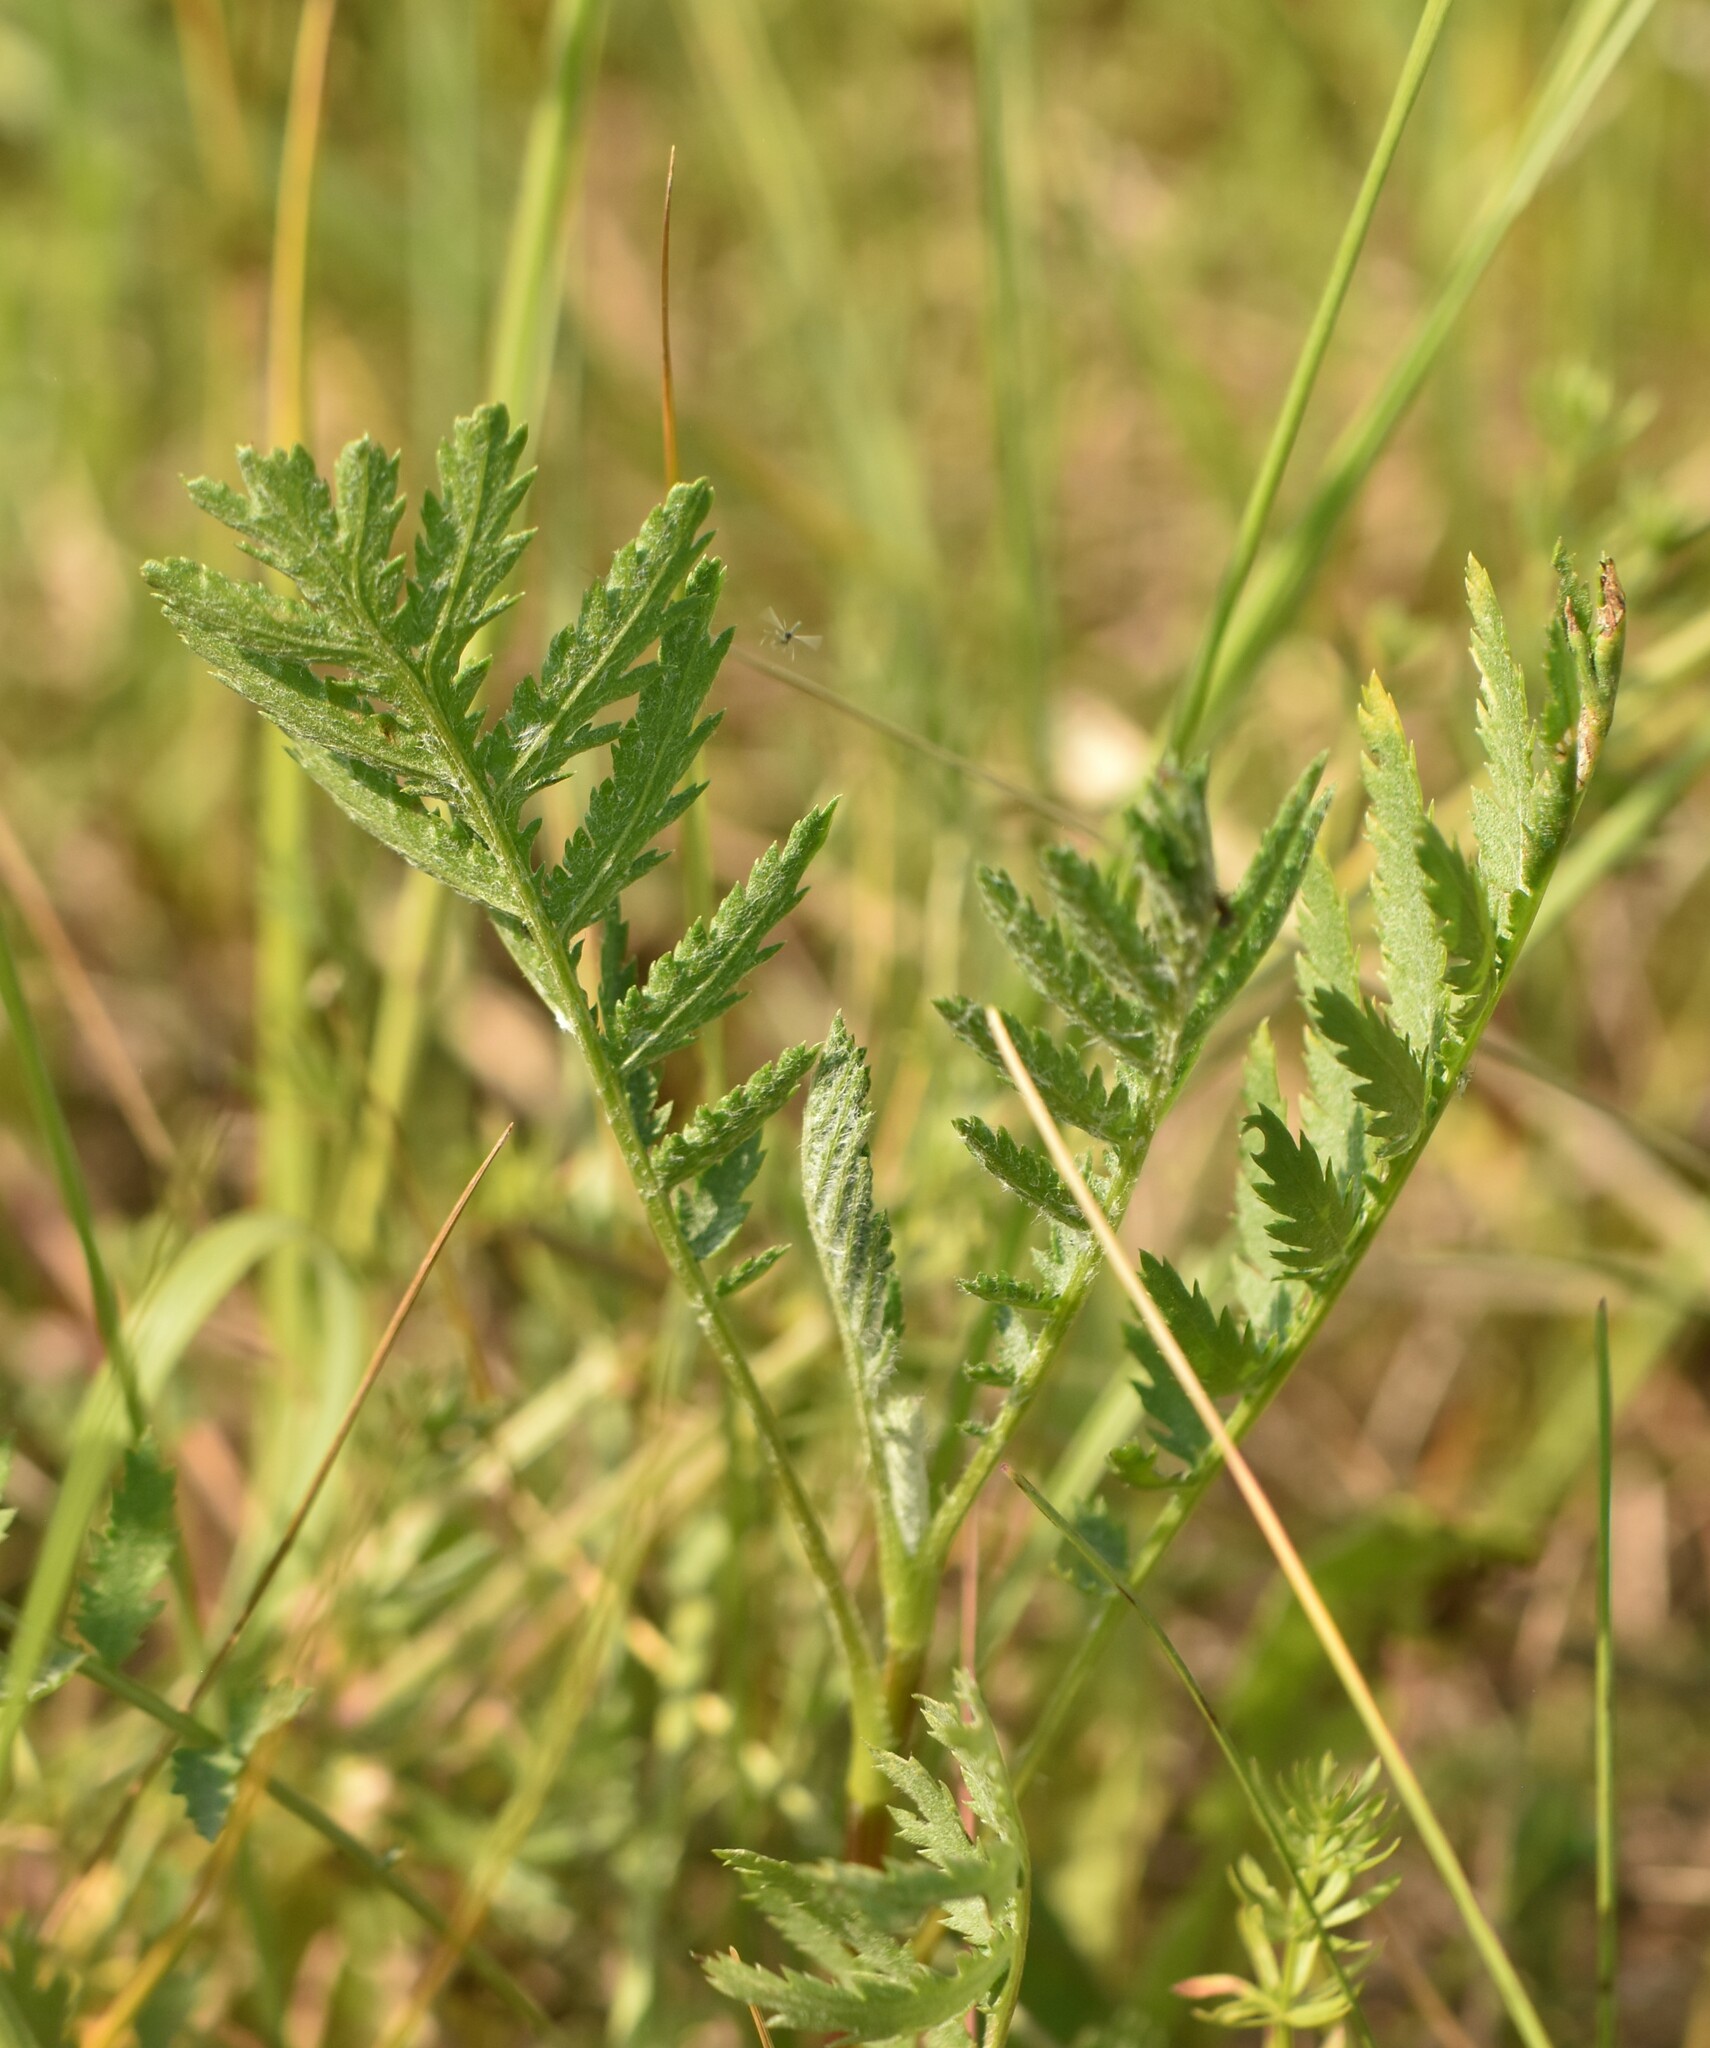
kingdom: Plantae
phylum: Tracheophyta
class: Magnoliopsida
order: Asterales
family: Asteraceae
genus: Tanacetum
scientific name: Tanacetum vulgare
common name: Common tansy
